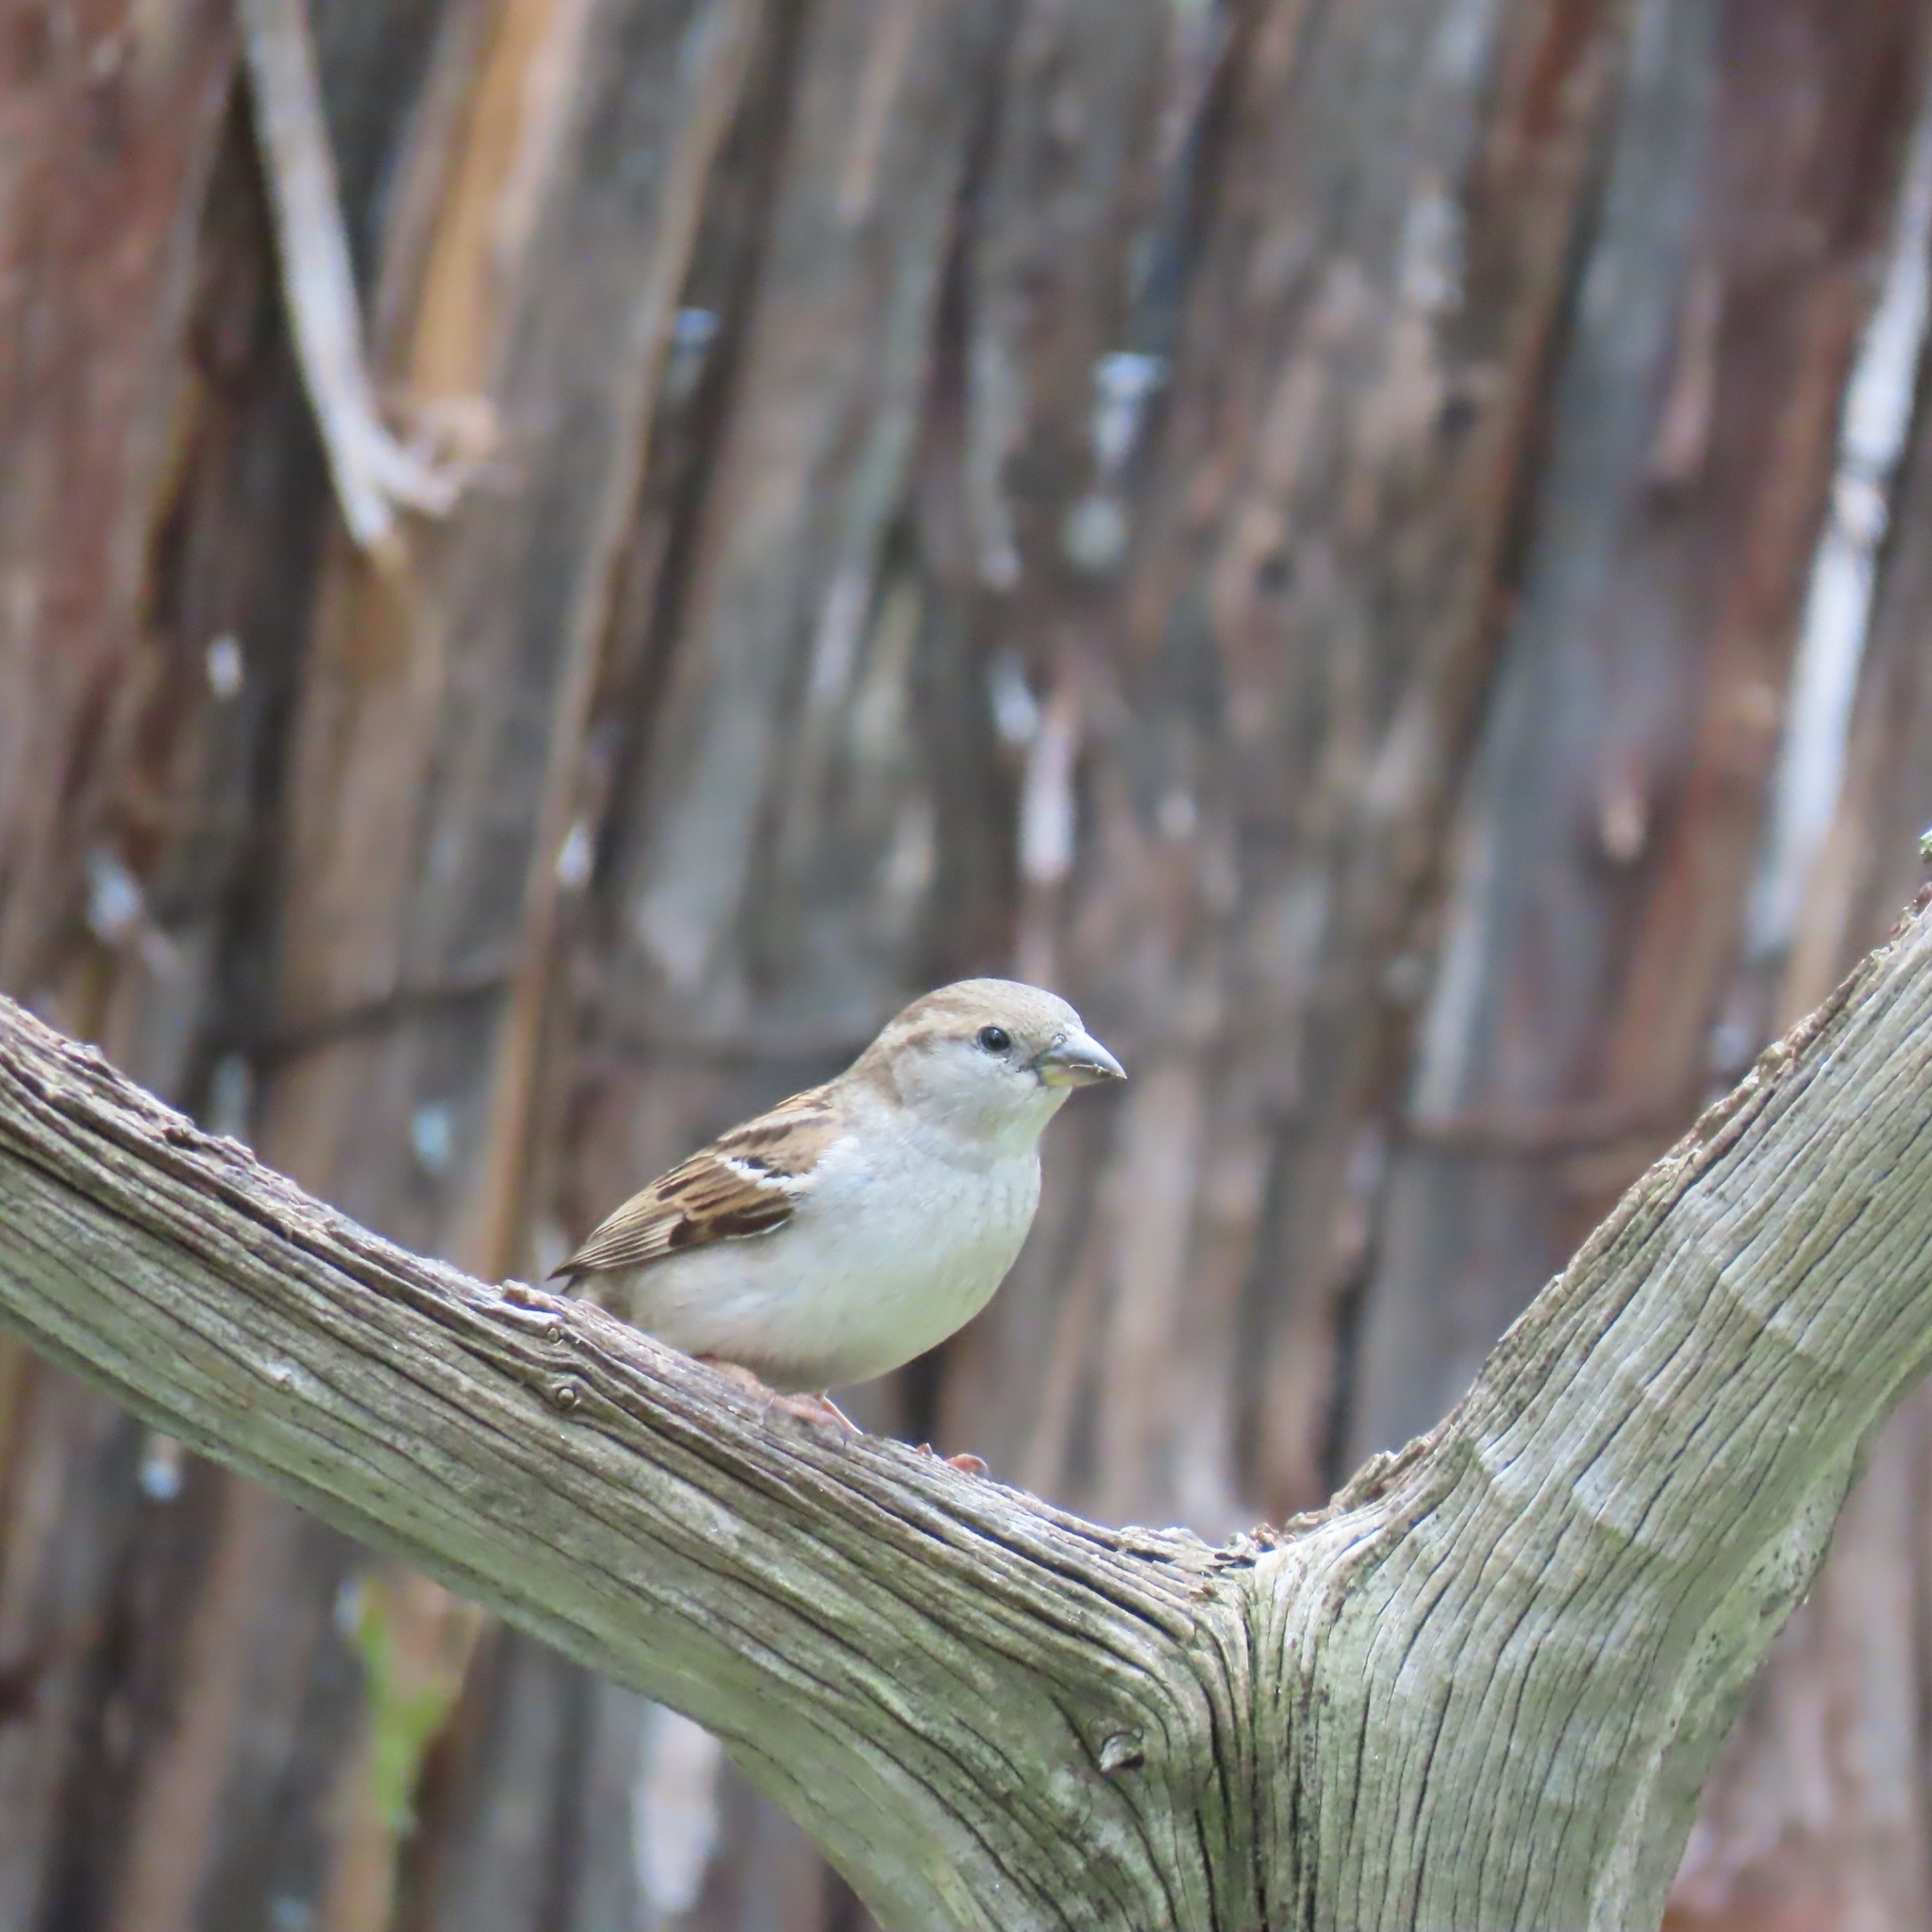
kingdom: Animalia
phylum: Chordata
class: Aves
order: Passeriformes
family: Passeridae
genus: Passer
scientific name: Passer domesticus
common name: House sparrow
